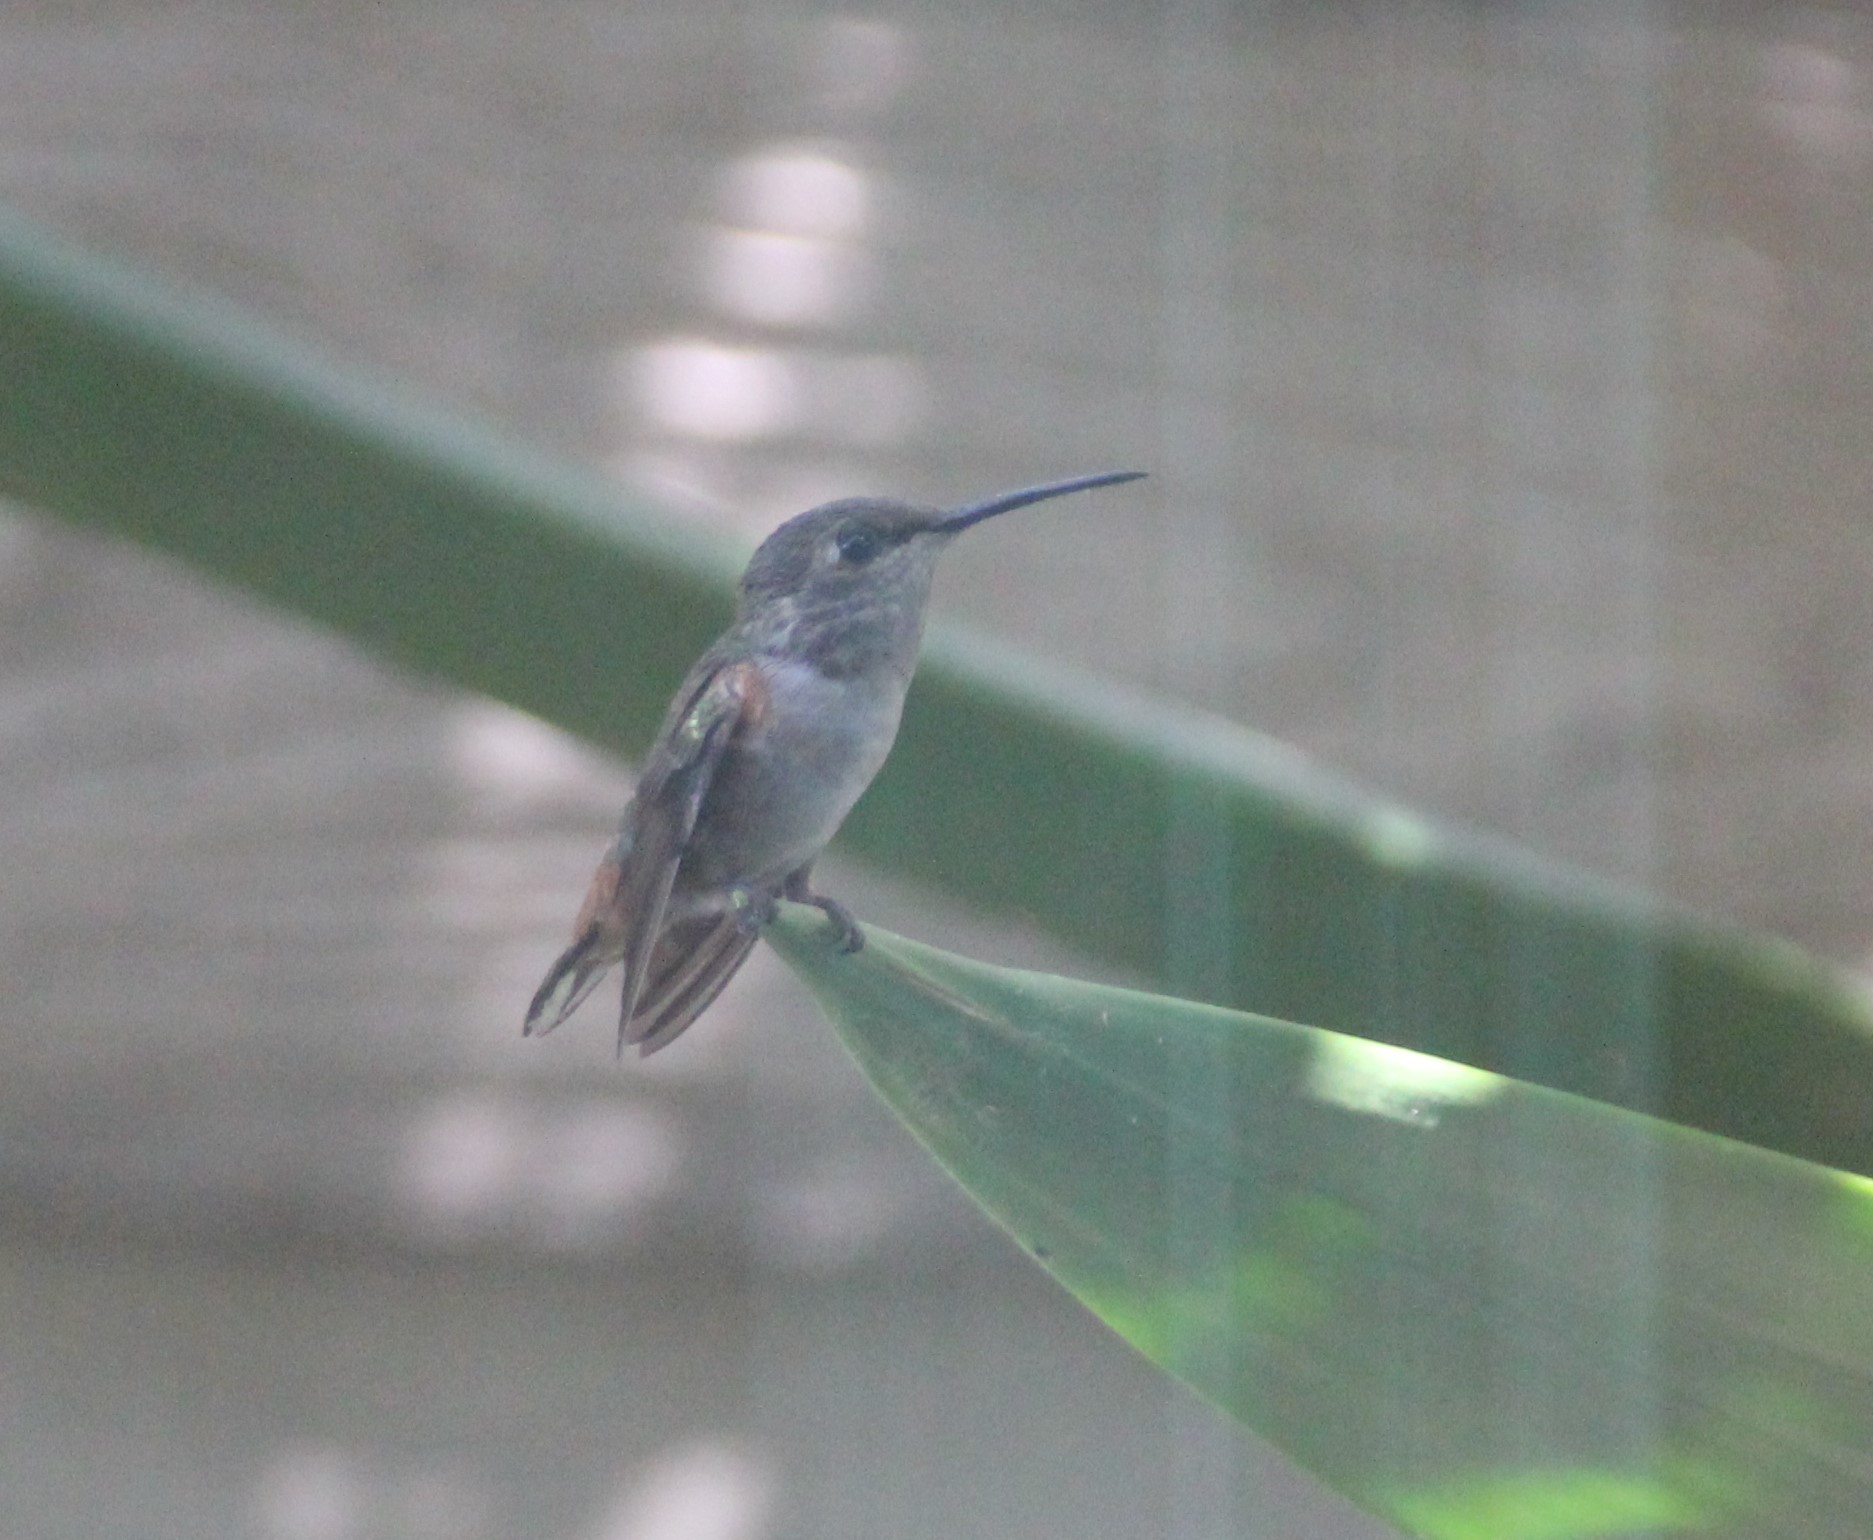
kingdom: Animalia
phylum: Chordata
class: Aves
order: Apodiformes
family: Trochilidae
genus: Selasphorus
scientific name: Selasphorus sasin
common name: Allen's hummingbird
